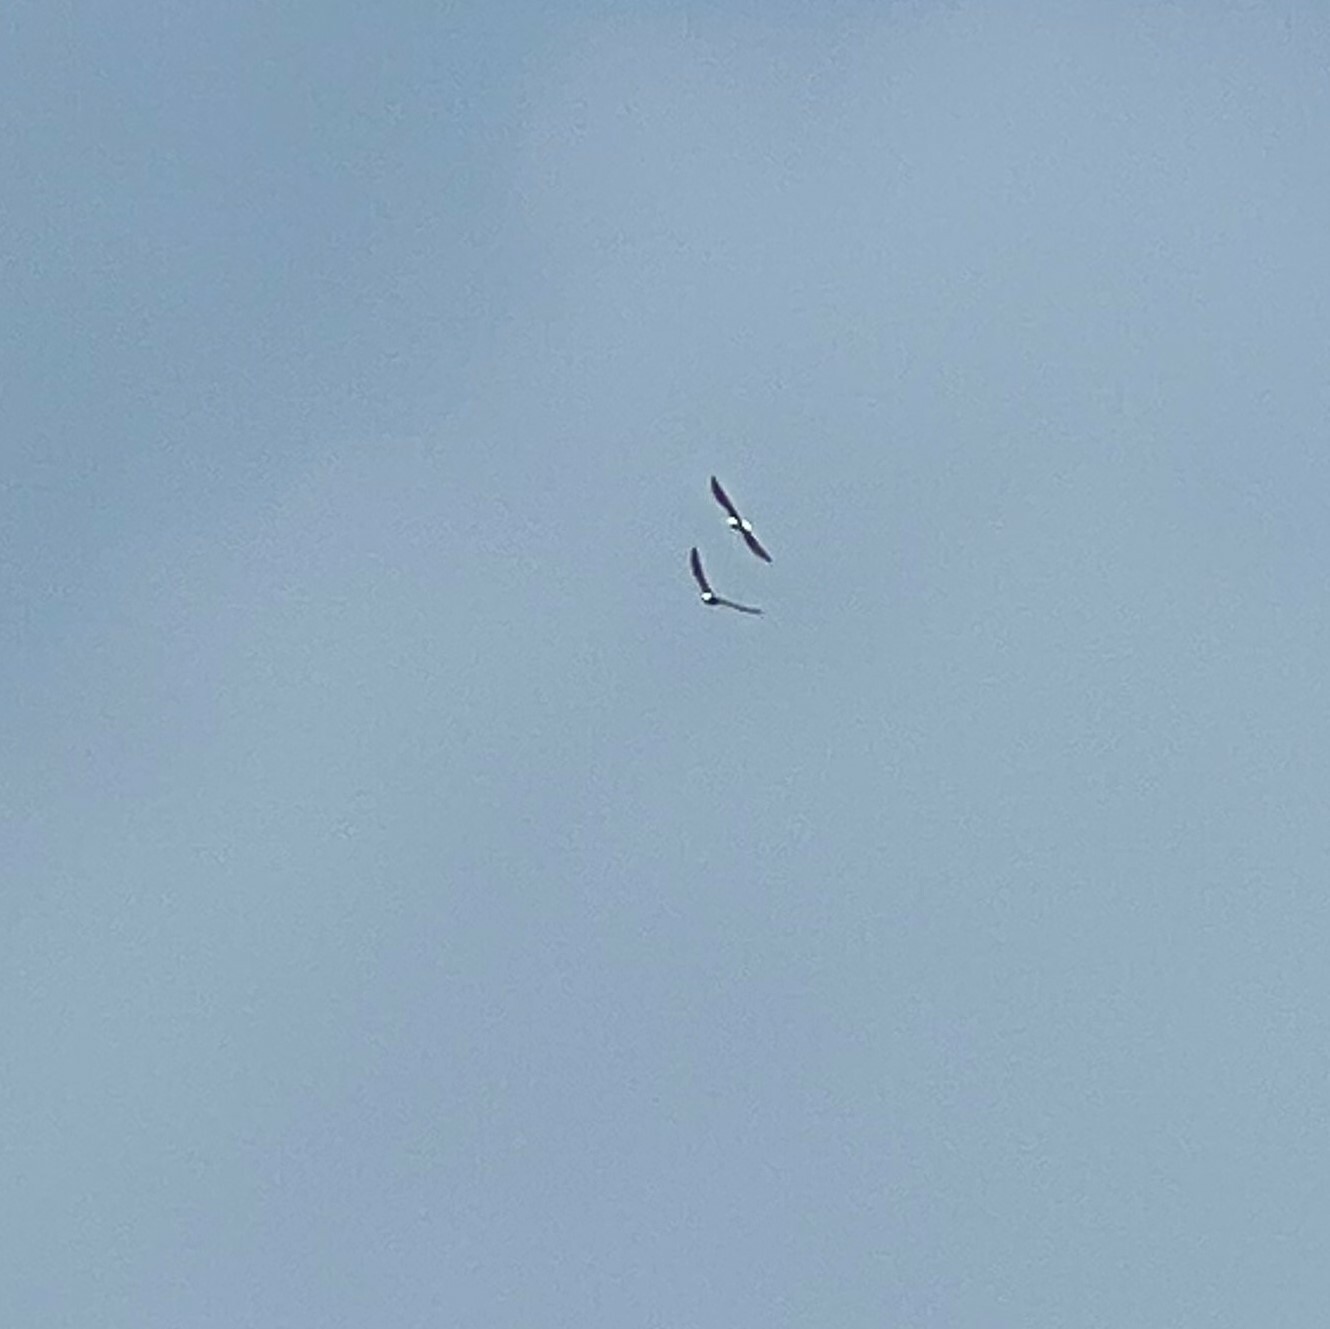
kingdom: Animalia
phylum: Chordata
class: Aves
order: Accipitriformes
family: Accipitridae
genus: Haliaeetus
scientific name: Haliaeetus leucocephalus
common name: Bald eagle
